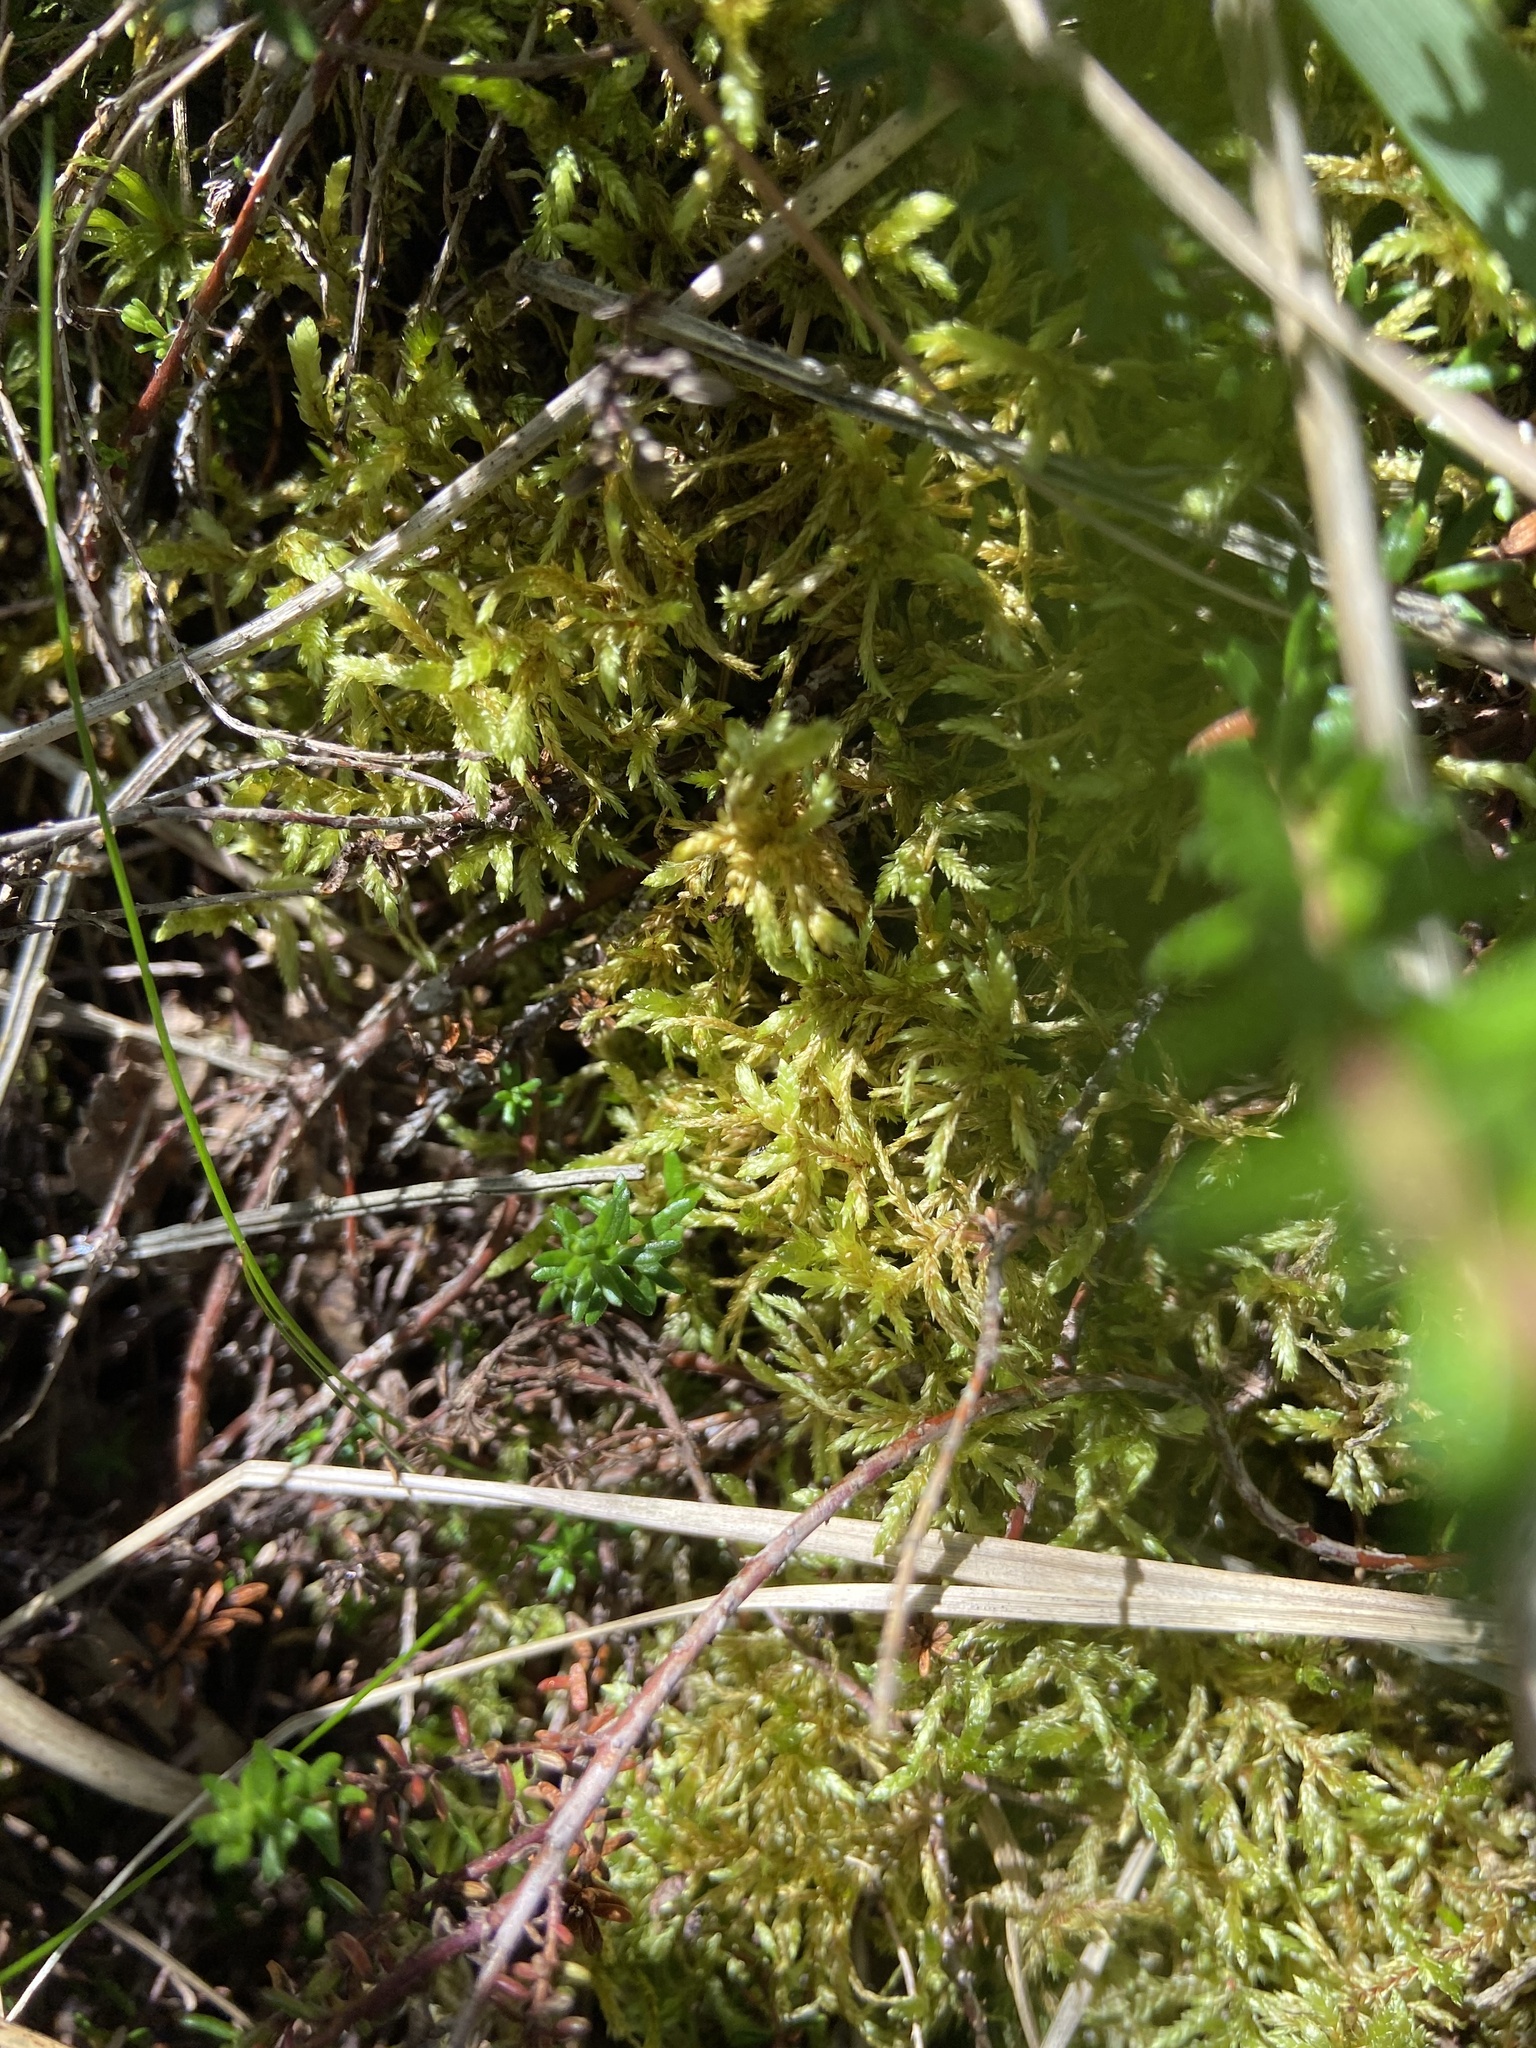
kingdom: Plantae
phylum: Bryophyta
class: Bryopsida
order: Hypnales
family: Hylocomiaceae
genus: Pleurozium
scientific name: Pleurozium schreberi
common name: Red-stemmed feather moss
